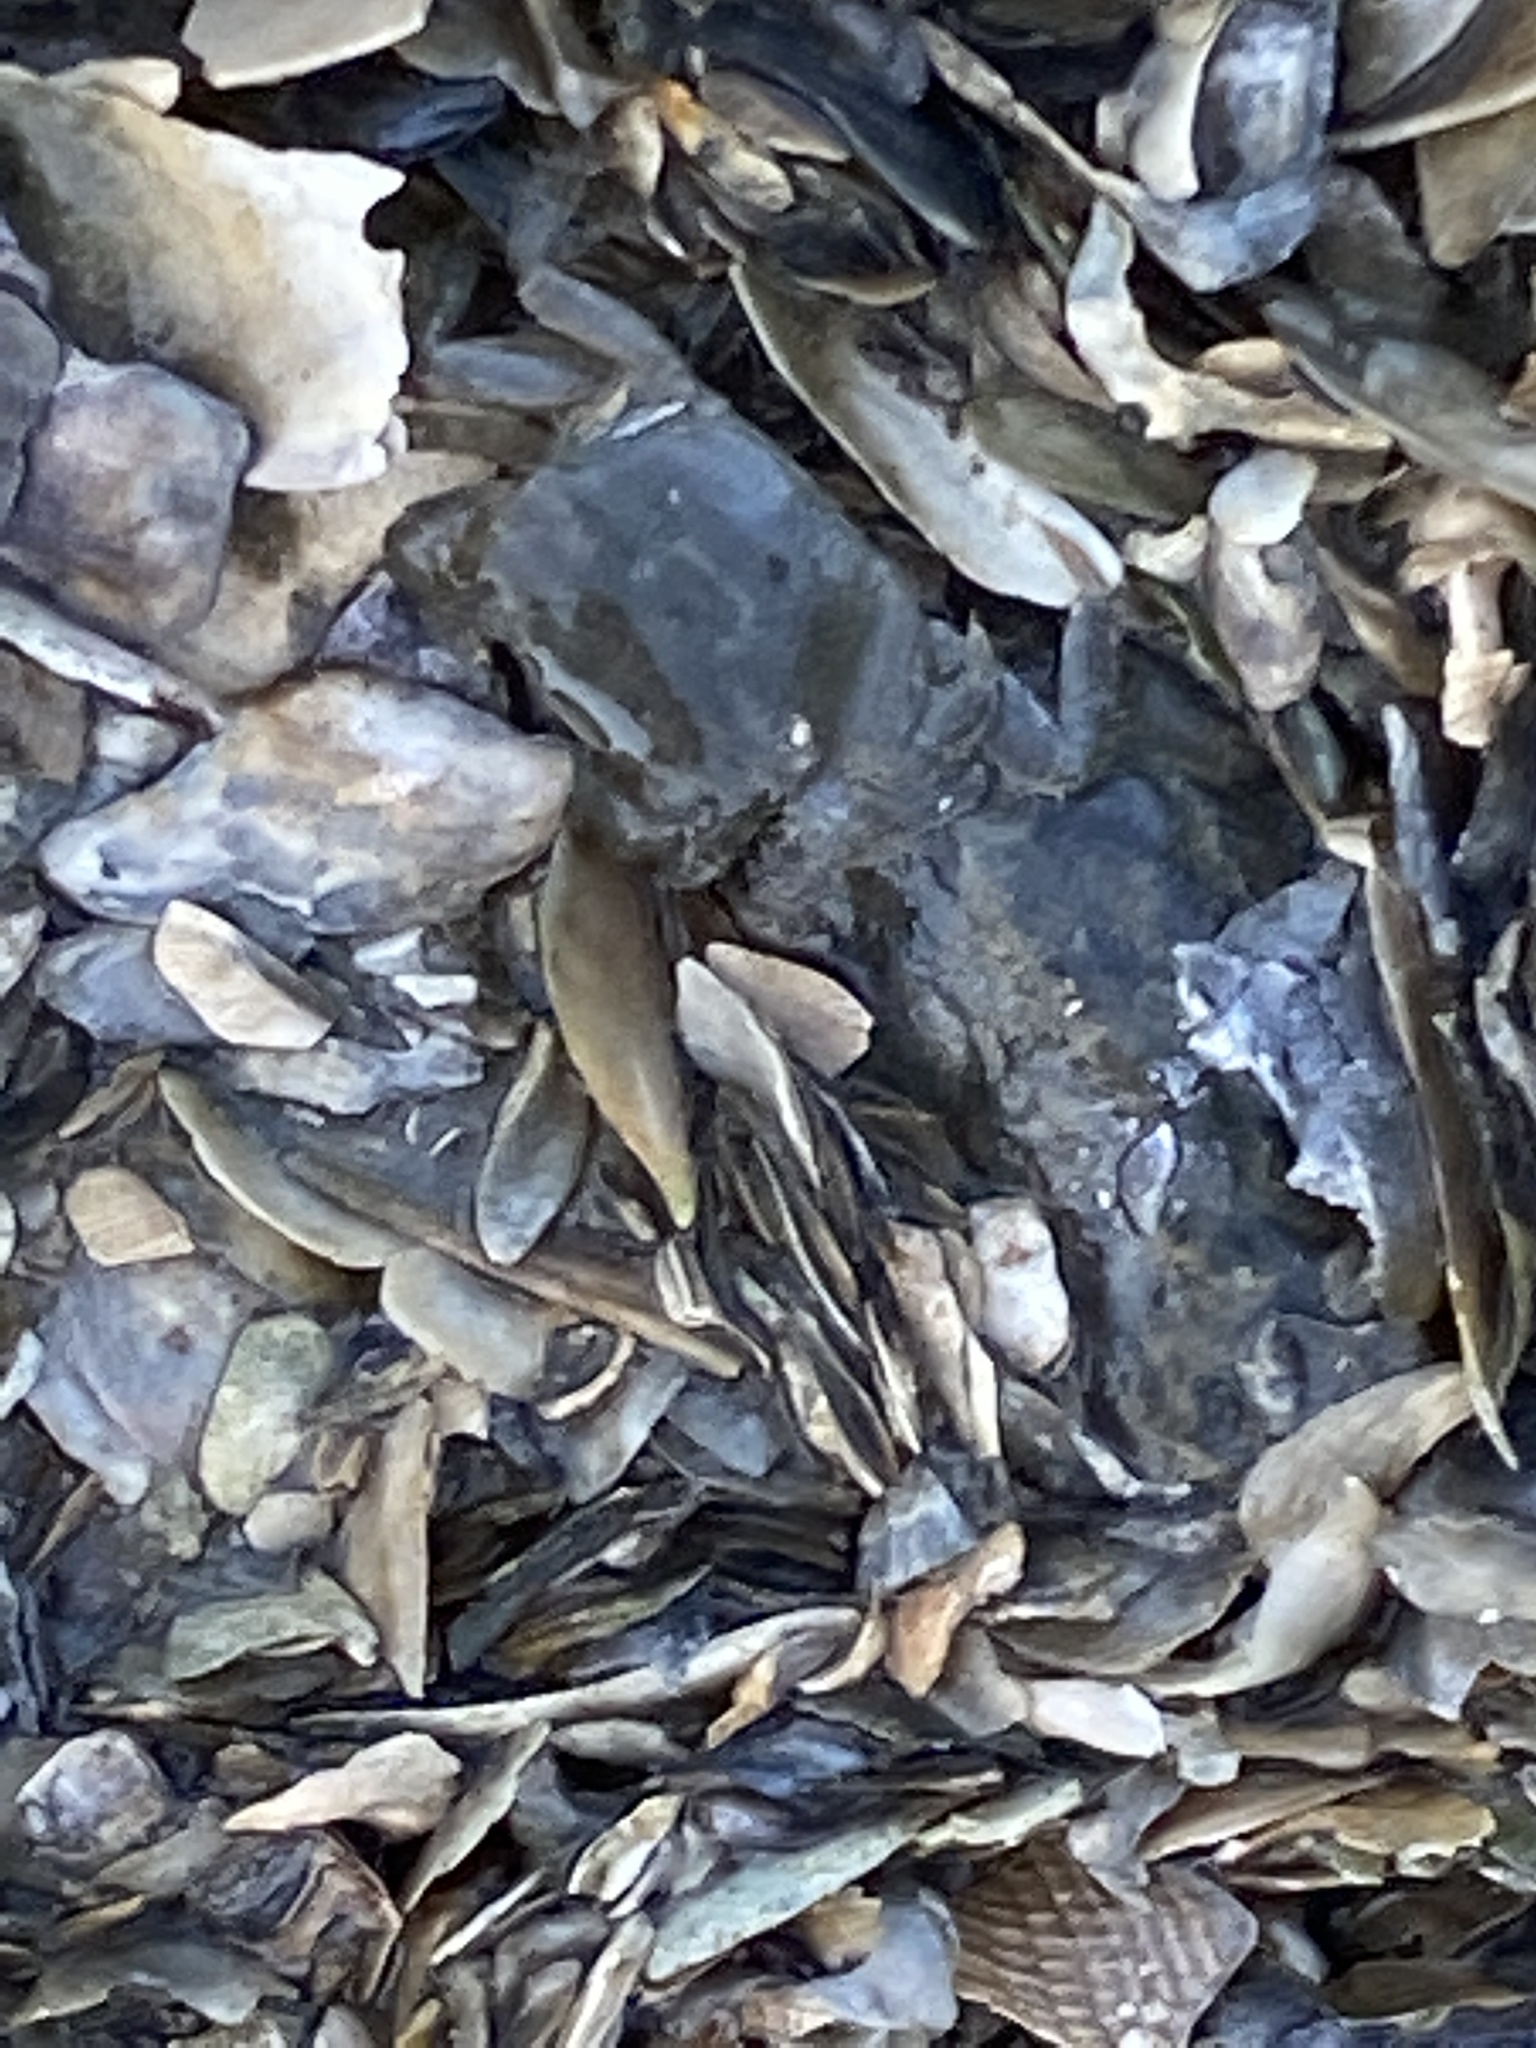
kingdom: Animalia
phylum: Arthropoda
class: Malacostraca
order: Decapoda
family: Varunidae
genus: Hemigrapsus
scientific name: Hemigrapsus oregonensis
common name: Yellow shore crab
